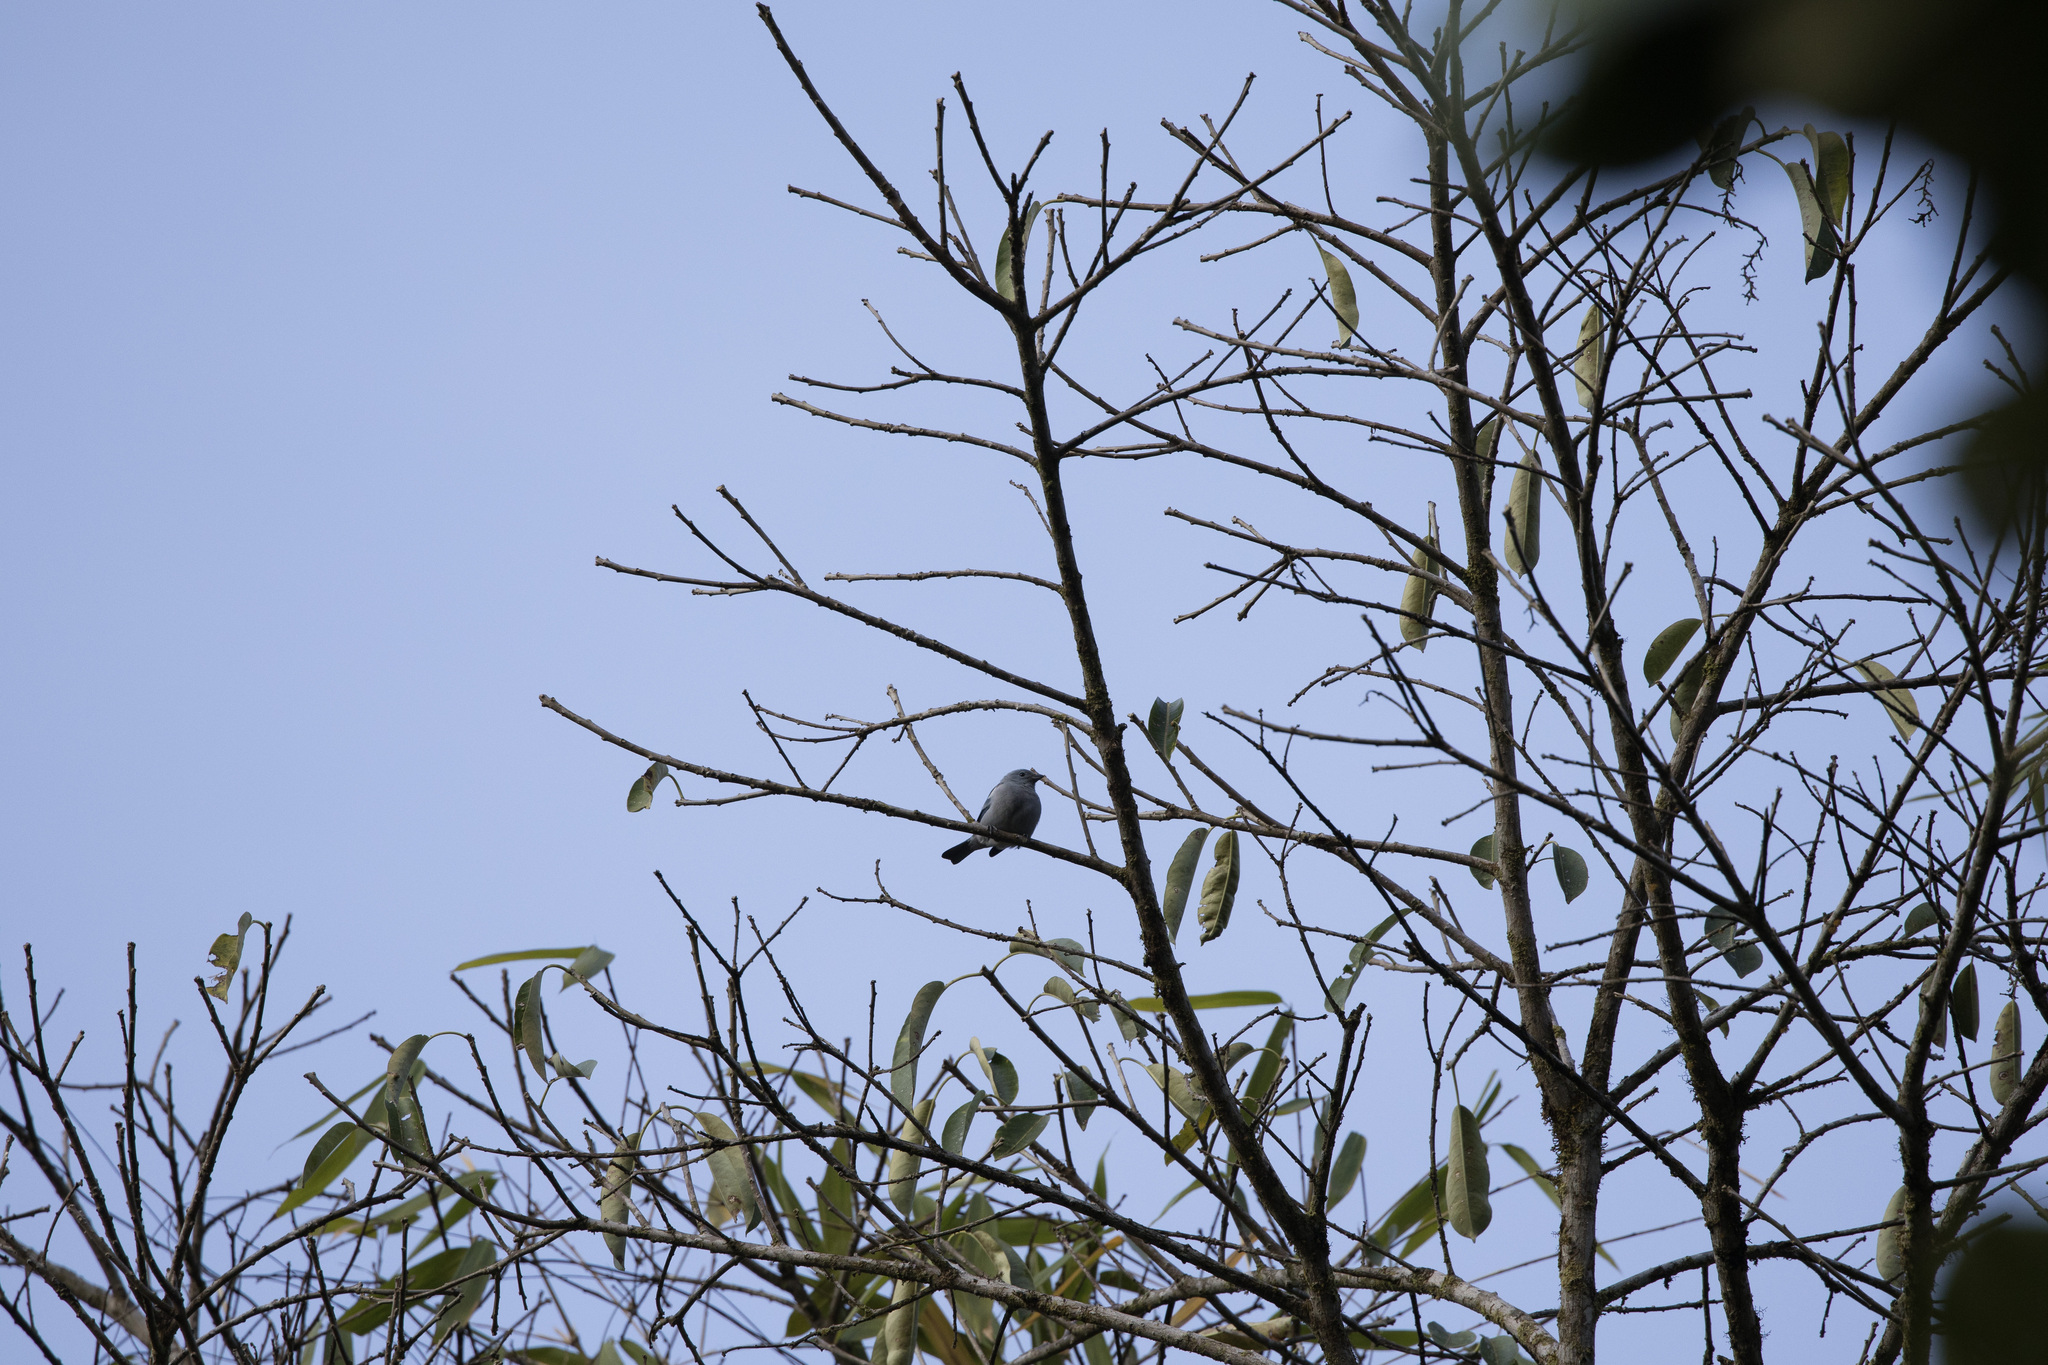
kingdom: Animalia
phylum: Chordata
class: Aves
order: Passeriformes
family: Thraupidae
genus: Thraupis
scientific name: Thraupis episcopus
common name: Blue-grey tanager
